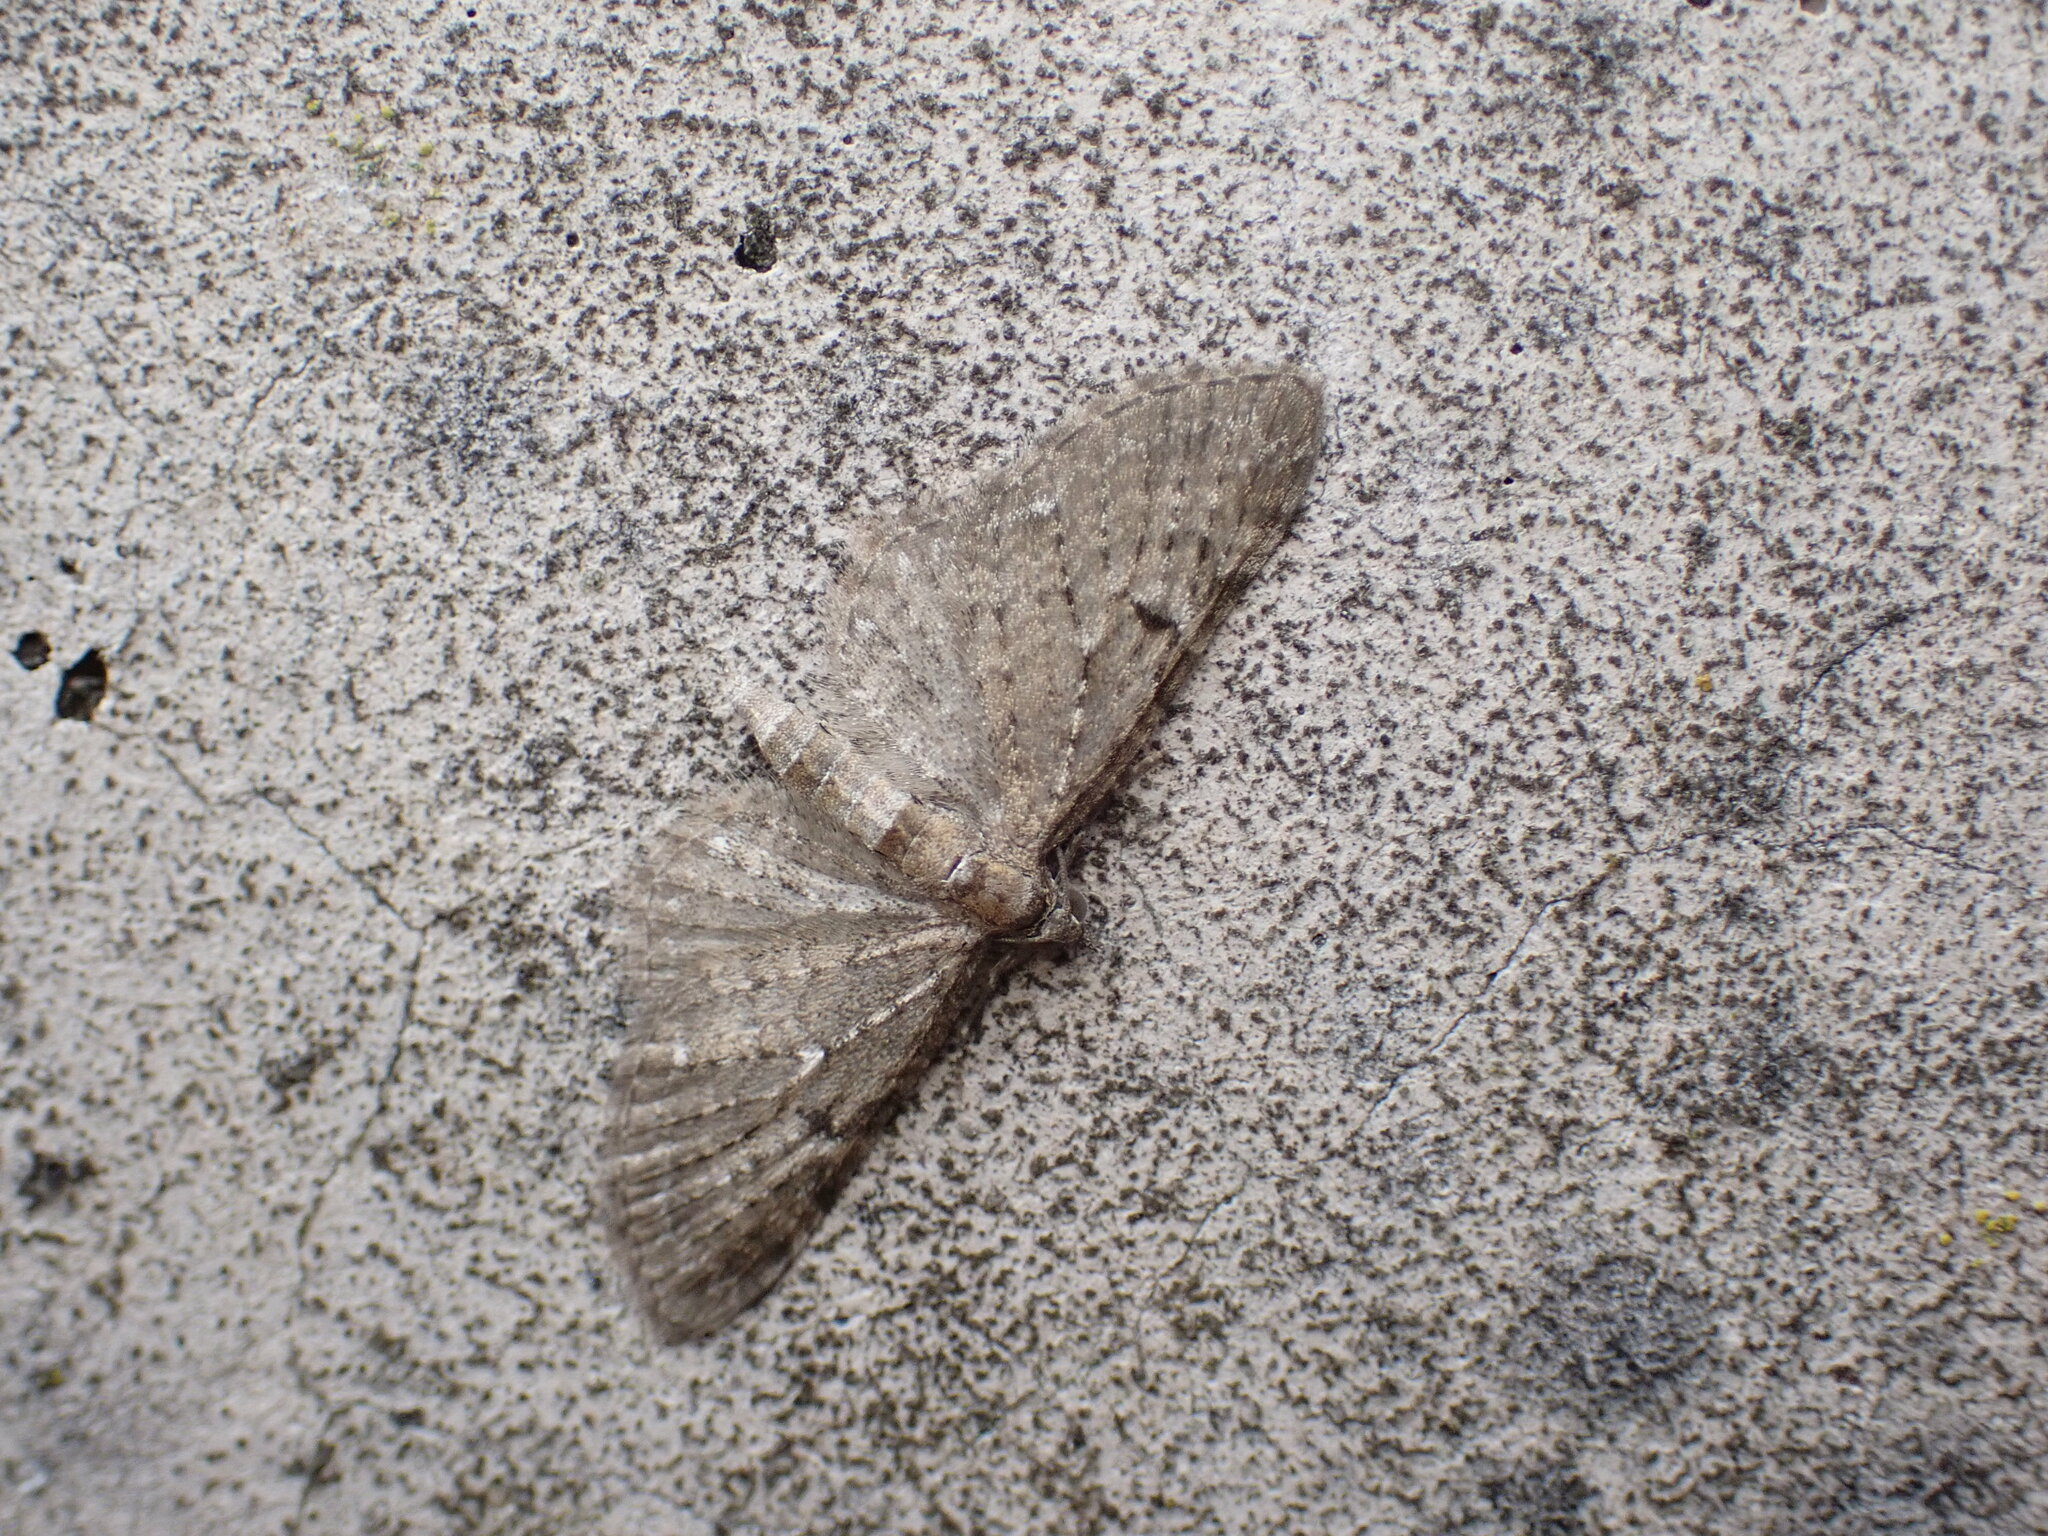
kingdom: Animalia
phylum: Arthropoda
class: Insecta
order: Lepidoptera
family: Geometridae
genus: Eupithecia
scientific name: Eupithecia virgaureata
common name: Golden-rod pug
